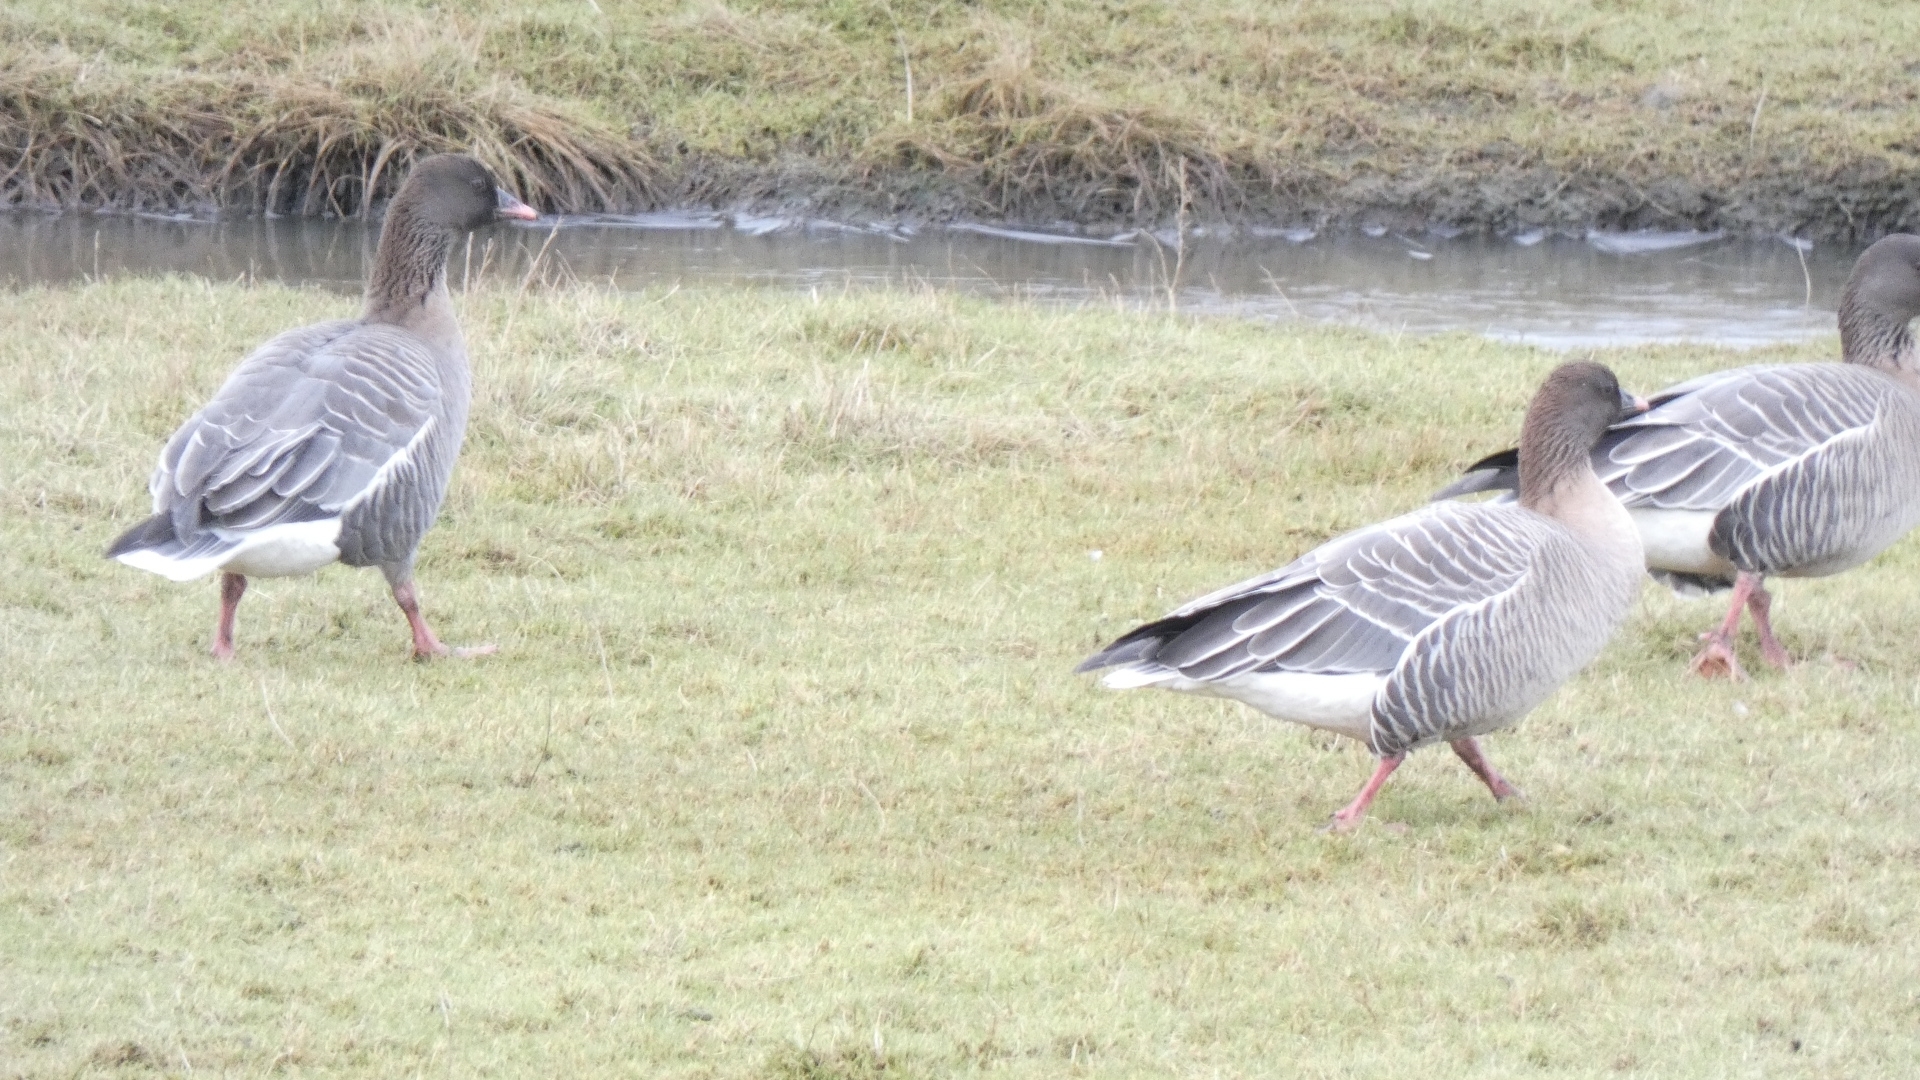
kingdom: Animalia
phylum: Chordata
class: Aves
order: Anseriformes
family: Anatidae
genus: Anser
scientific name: Anser brachyrhynchus
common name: Pink-footed goose
